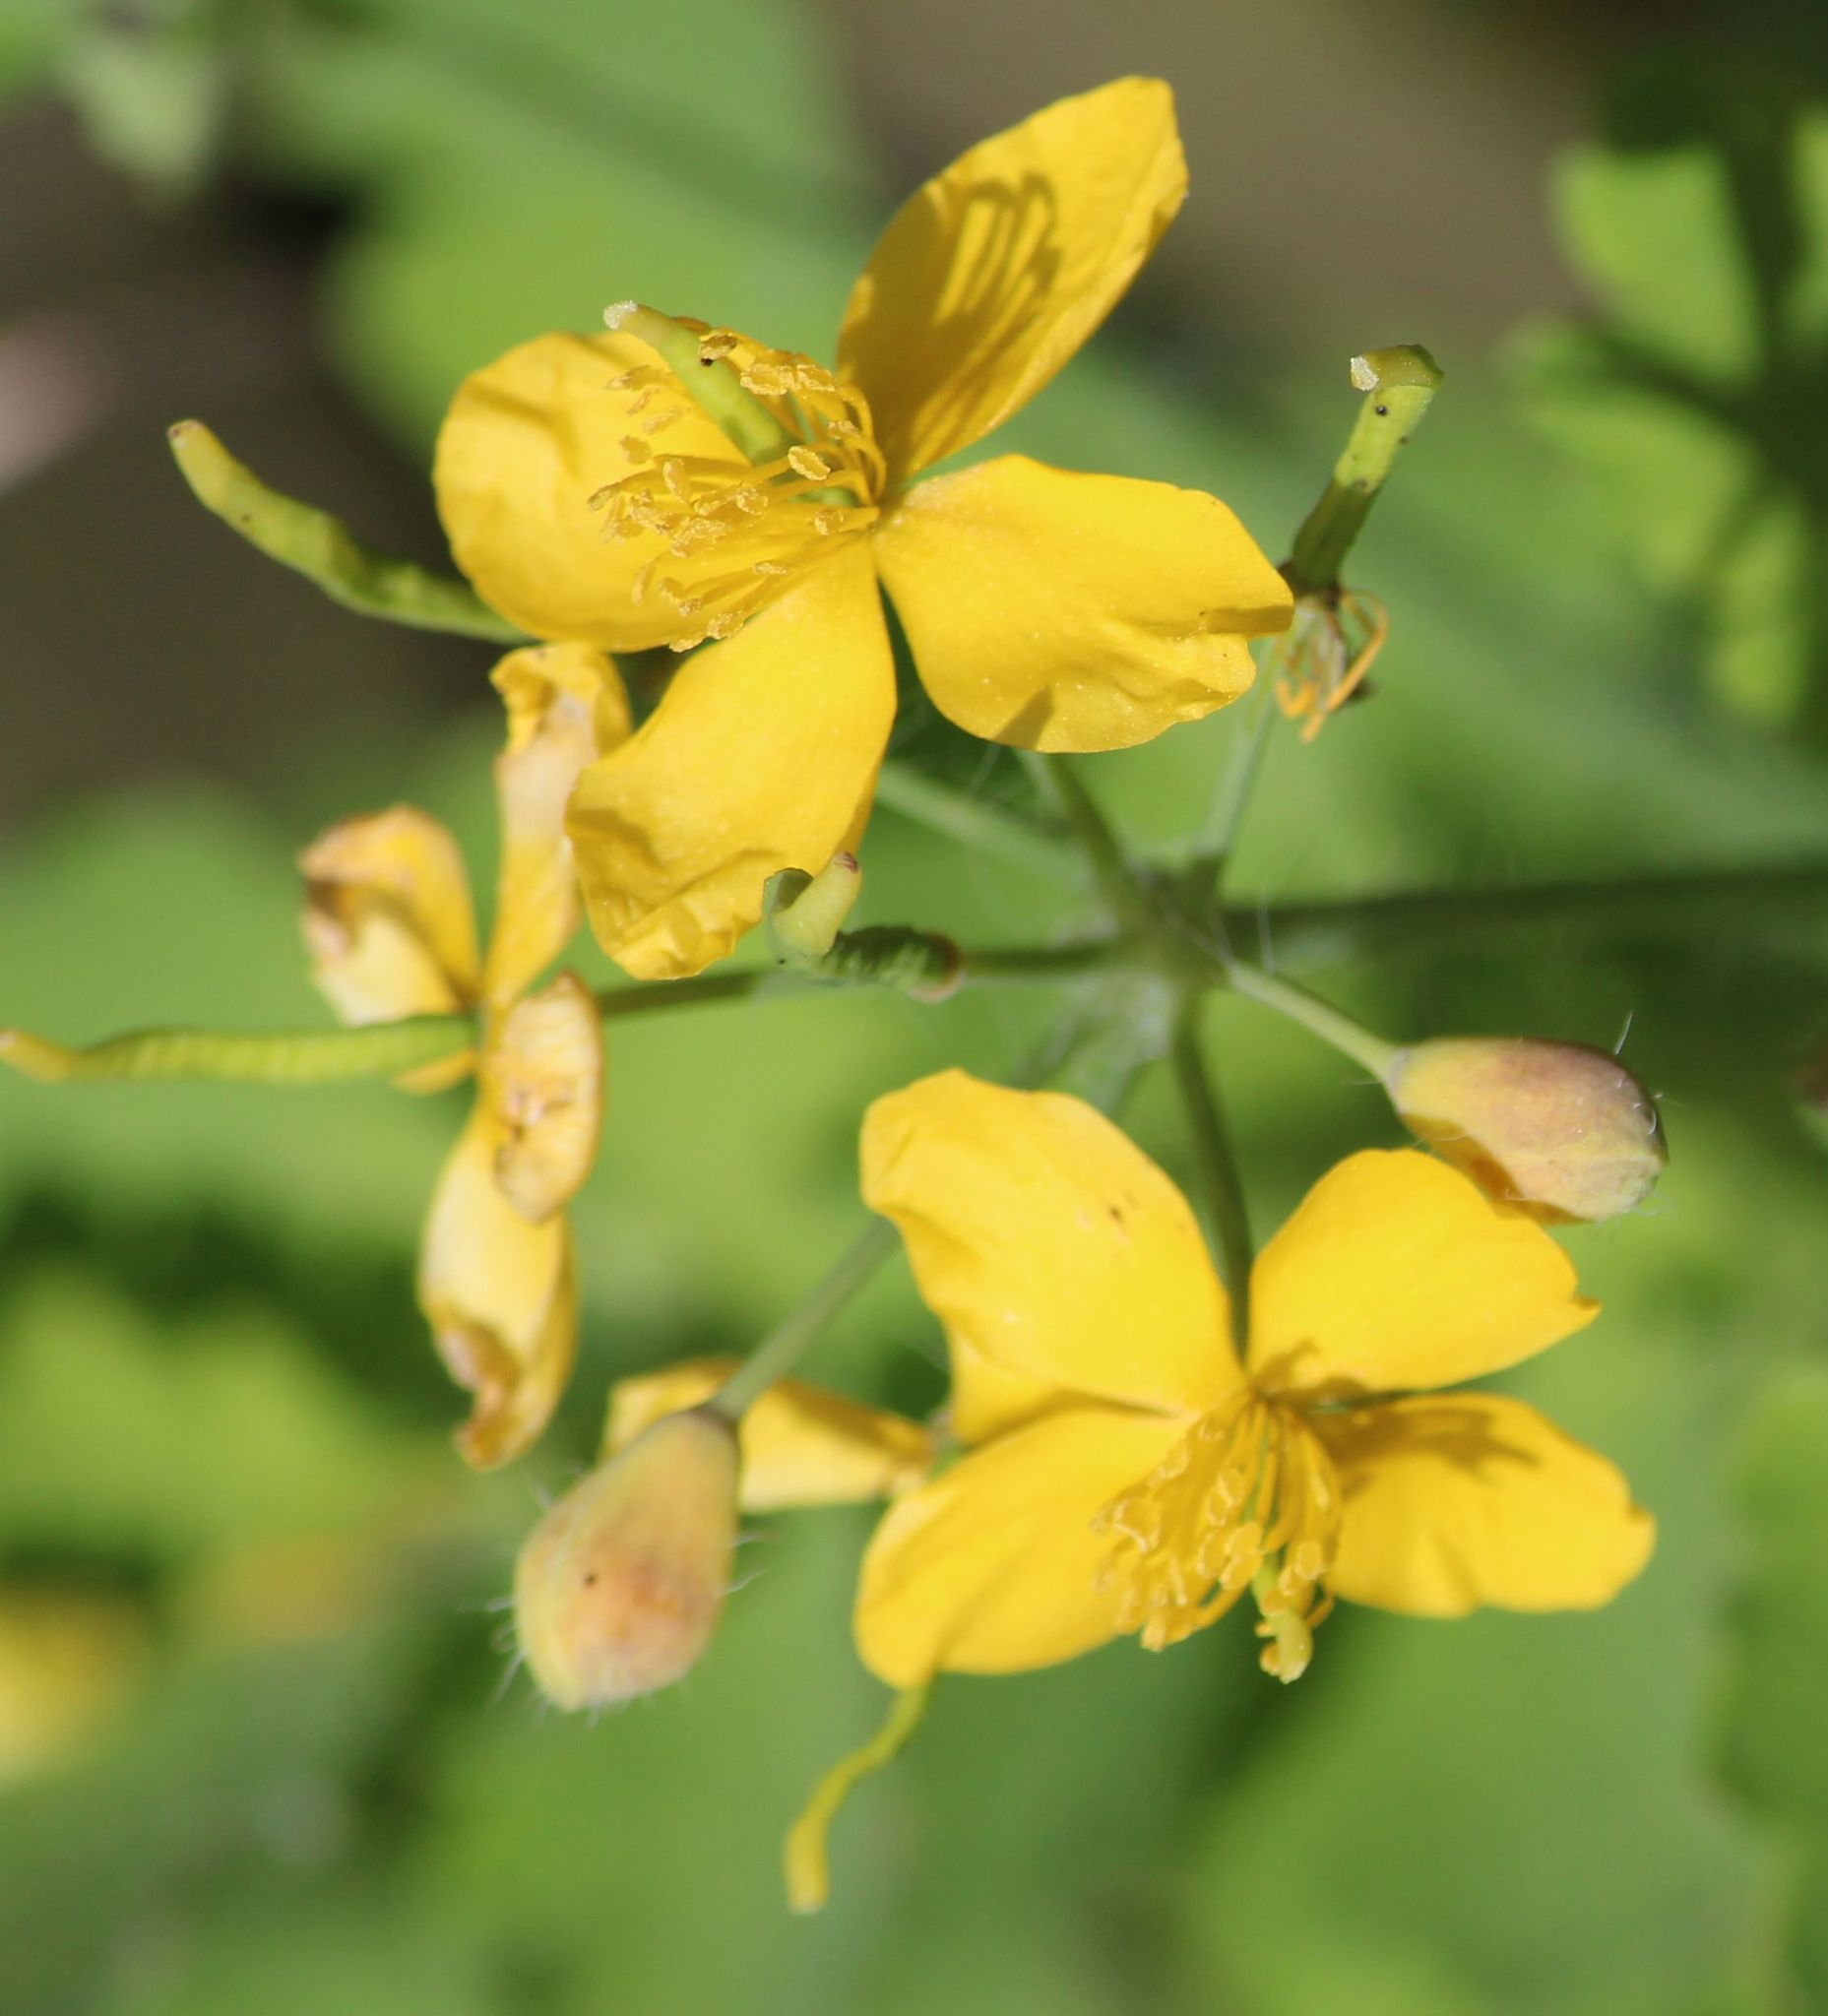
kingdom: Plantae
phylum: Tracheophyta
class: Magnoliopsida
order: Ranunculales
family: Papaveraceae
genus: Chelidonium
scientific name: Chelidonium majus
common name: Greater celandine
